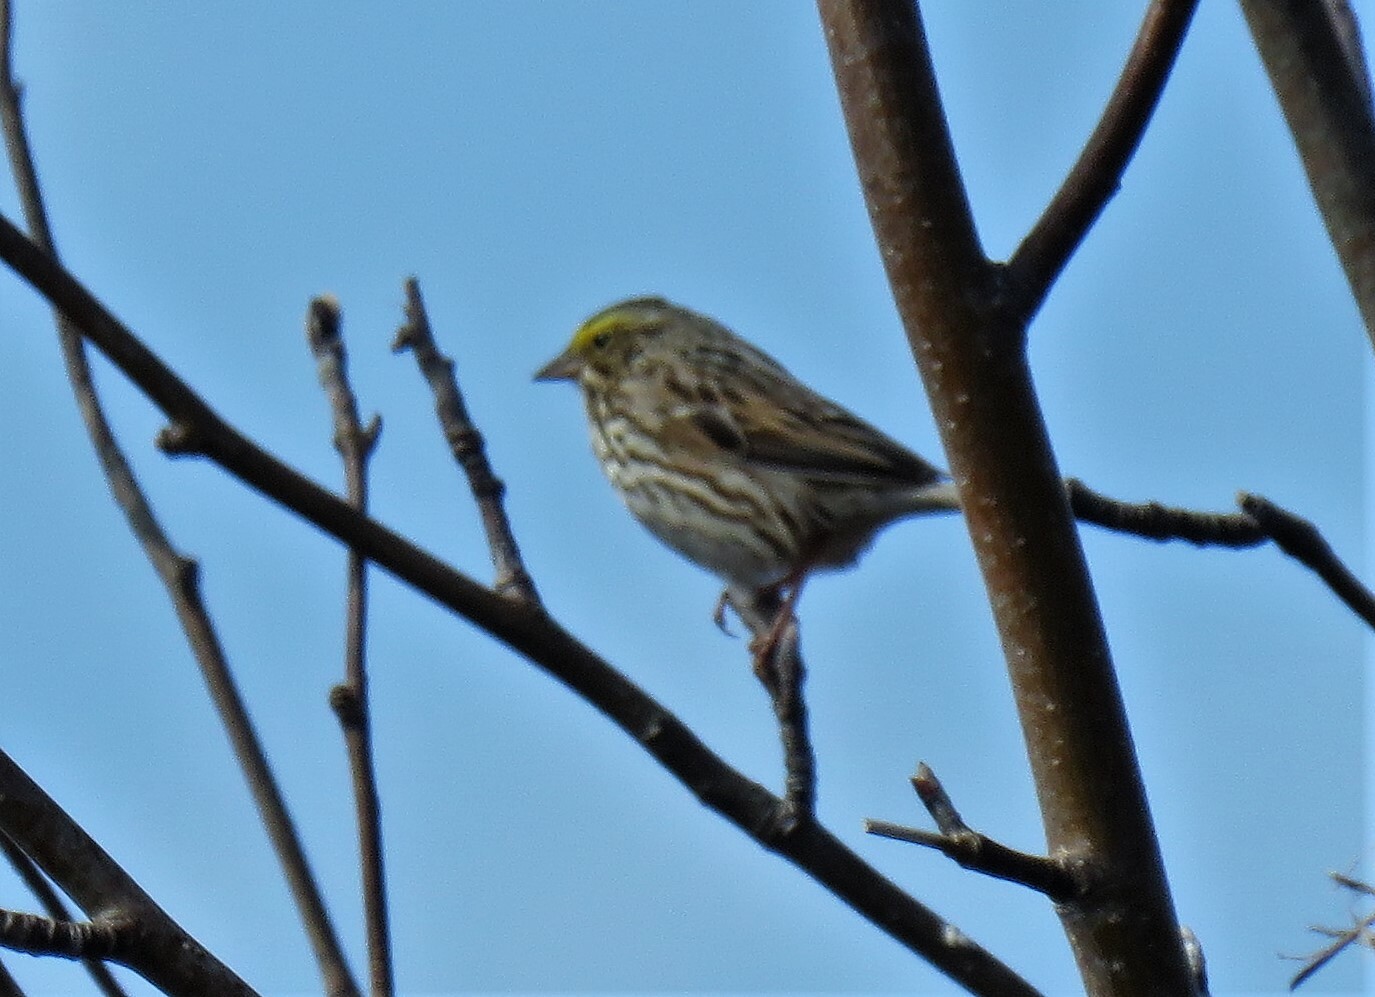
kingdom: Animalia
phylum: Chordata
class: Aves
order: Passeriformes
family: Passerellidae
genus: Passerculus
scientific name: Passerculus sandwichensis
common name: Savannah sparrow
